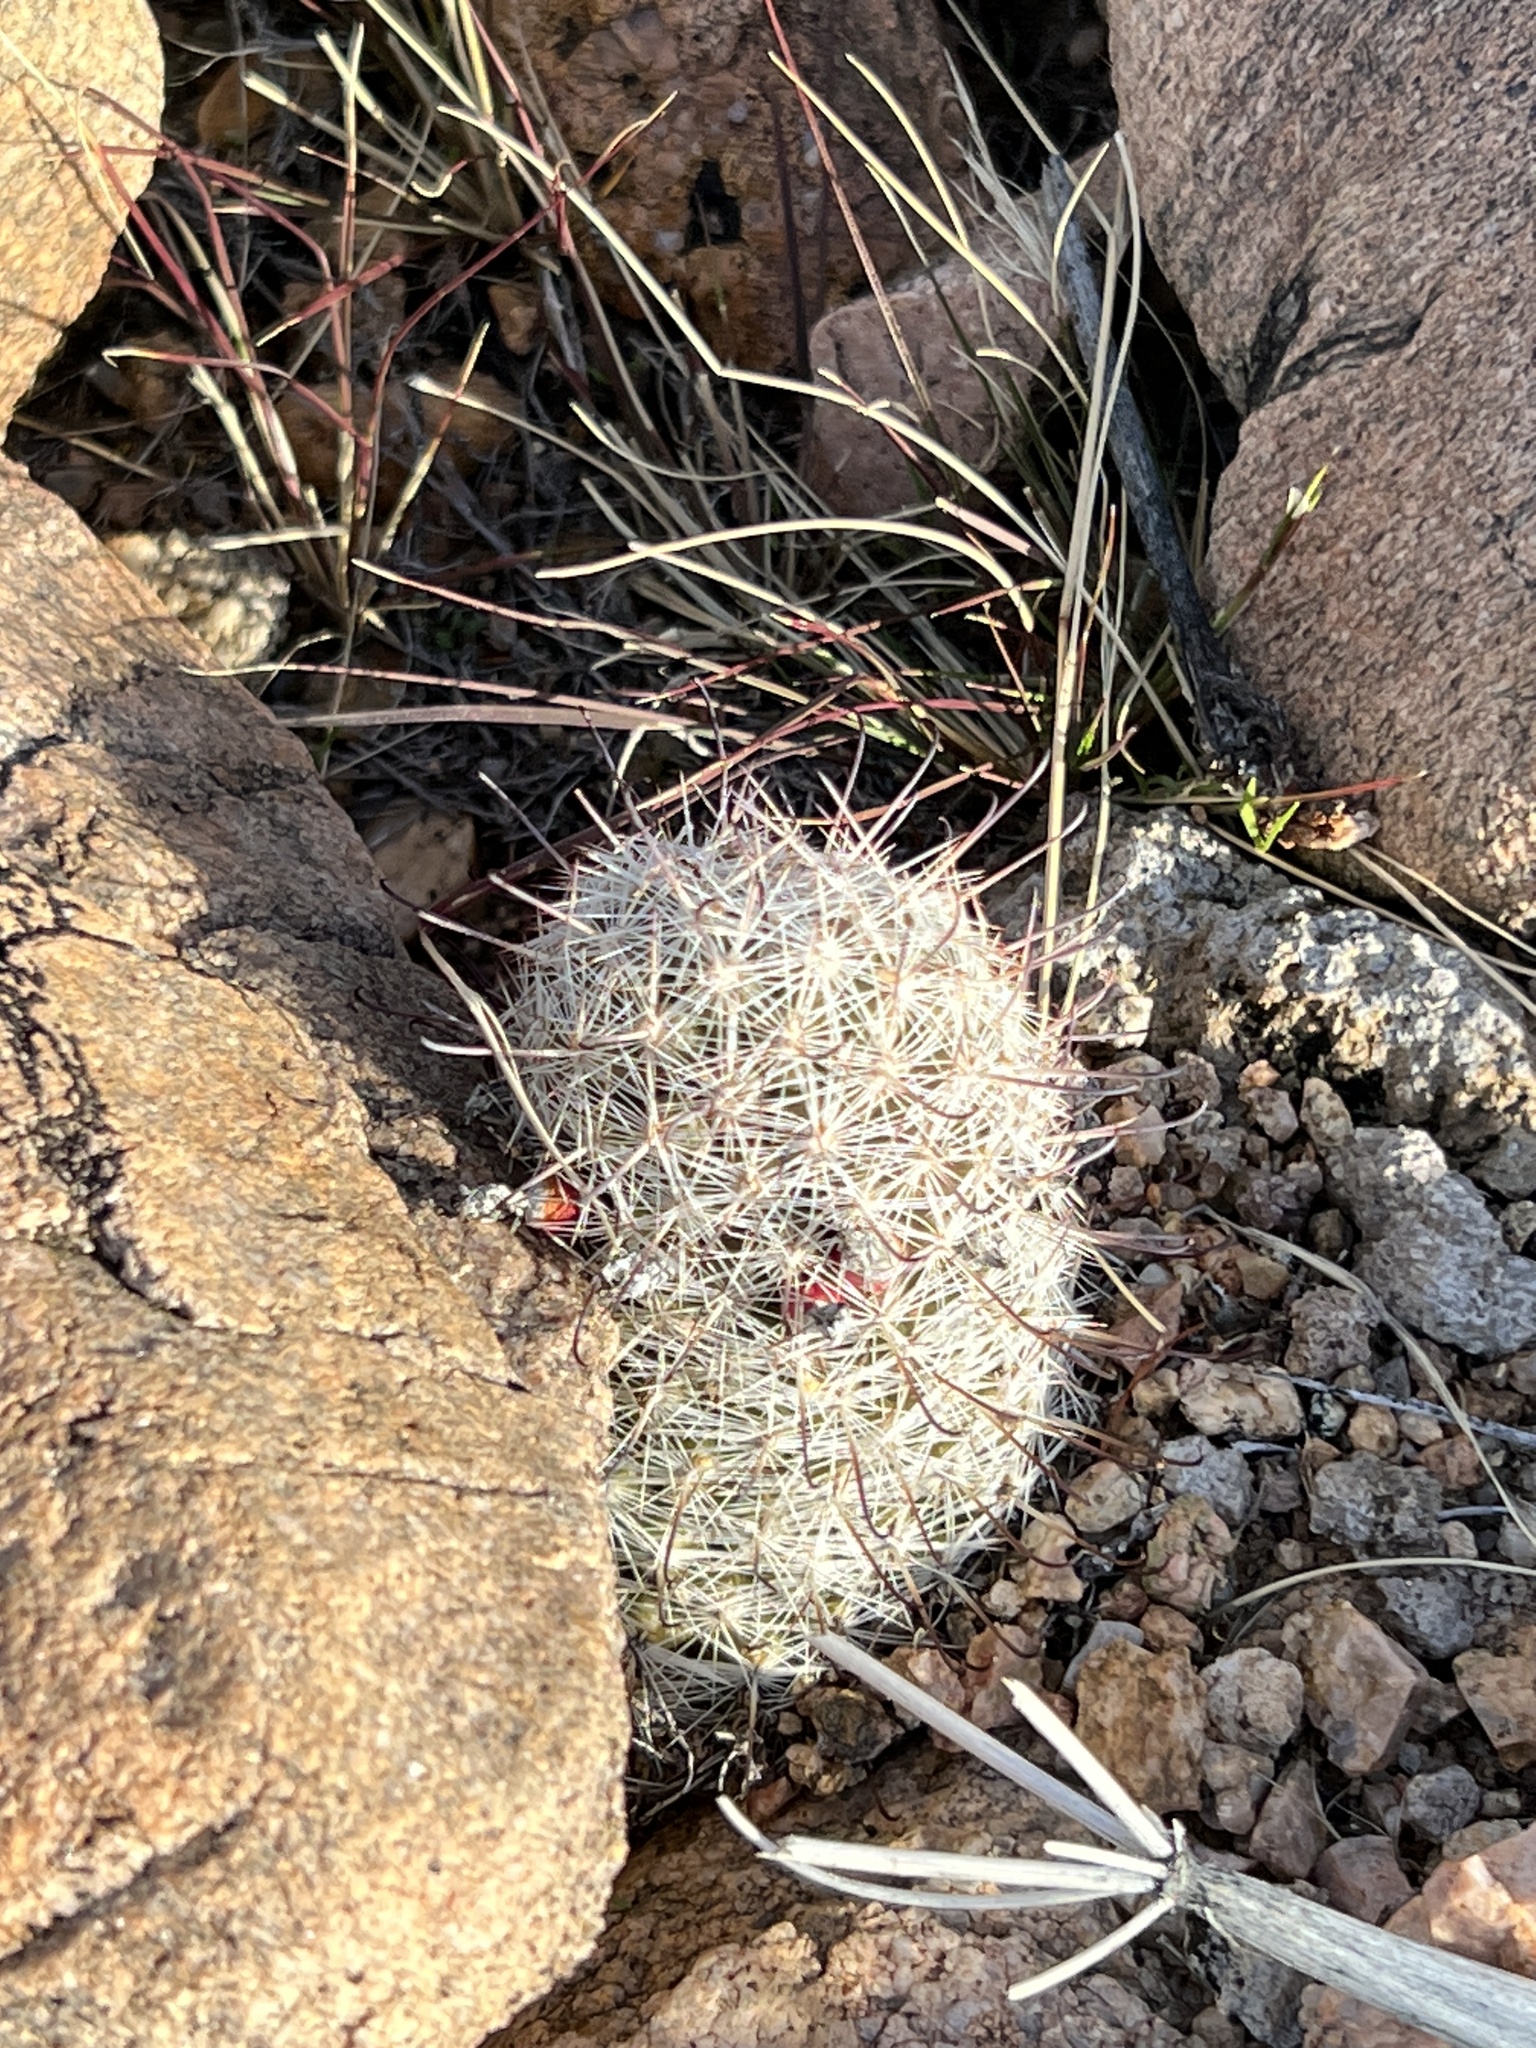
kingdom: Plantae
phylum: Tracheophyta
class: Magnoliopsida
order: Caryophyllales
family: Cactaceae
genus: Cochemiea
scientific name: Cochemiea grahamii
